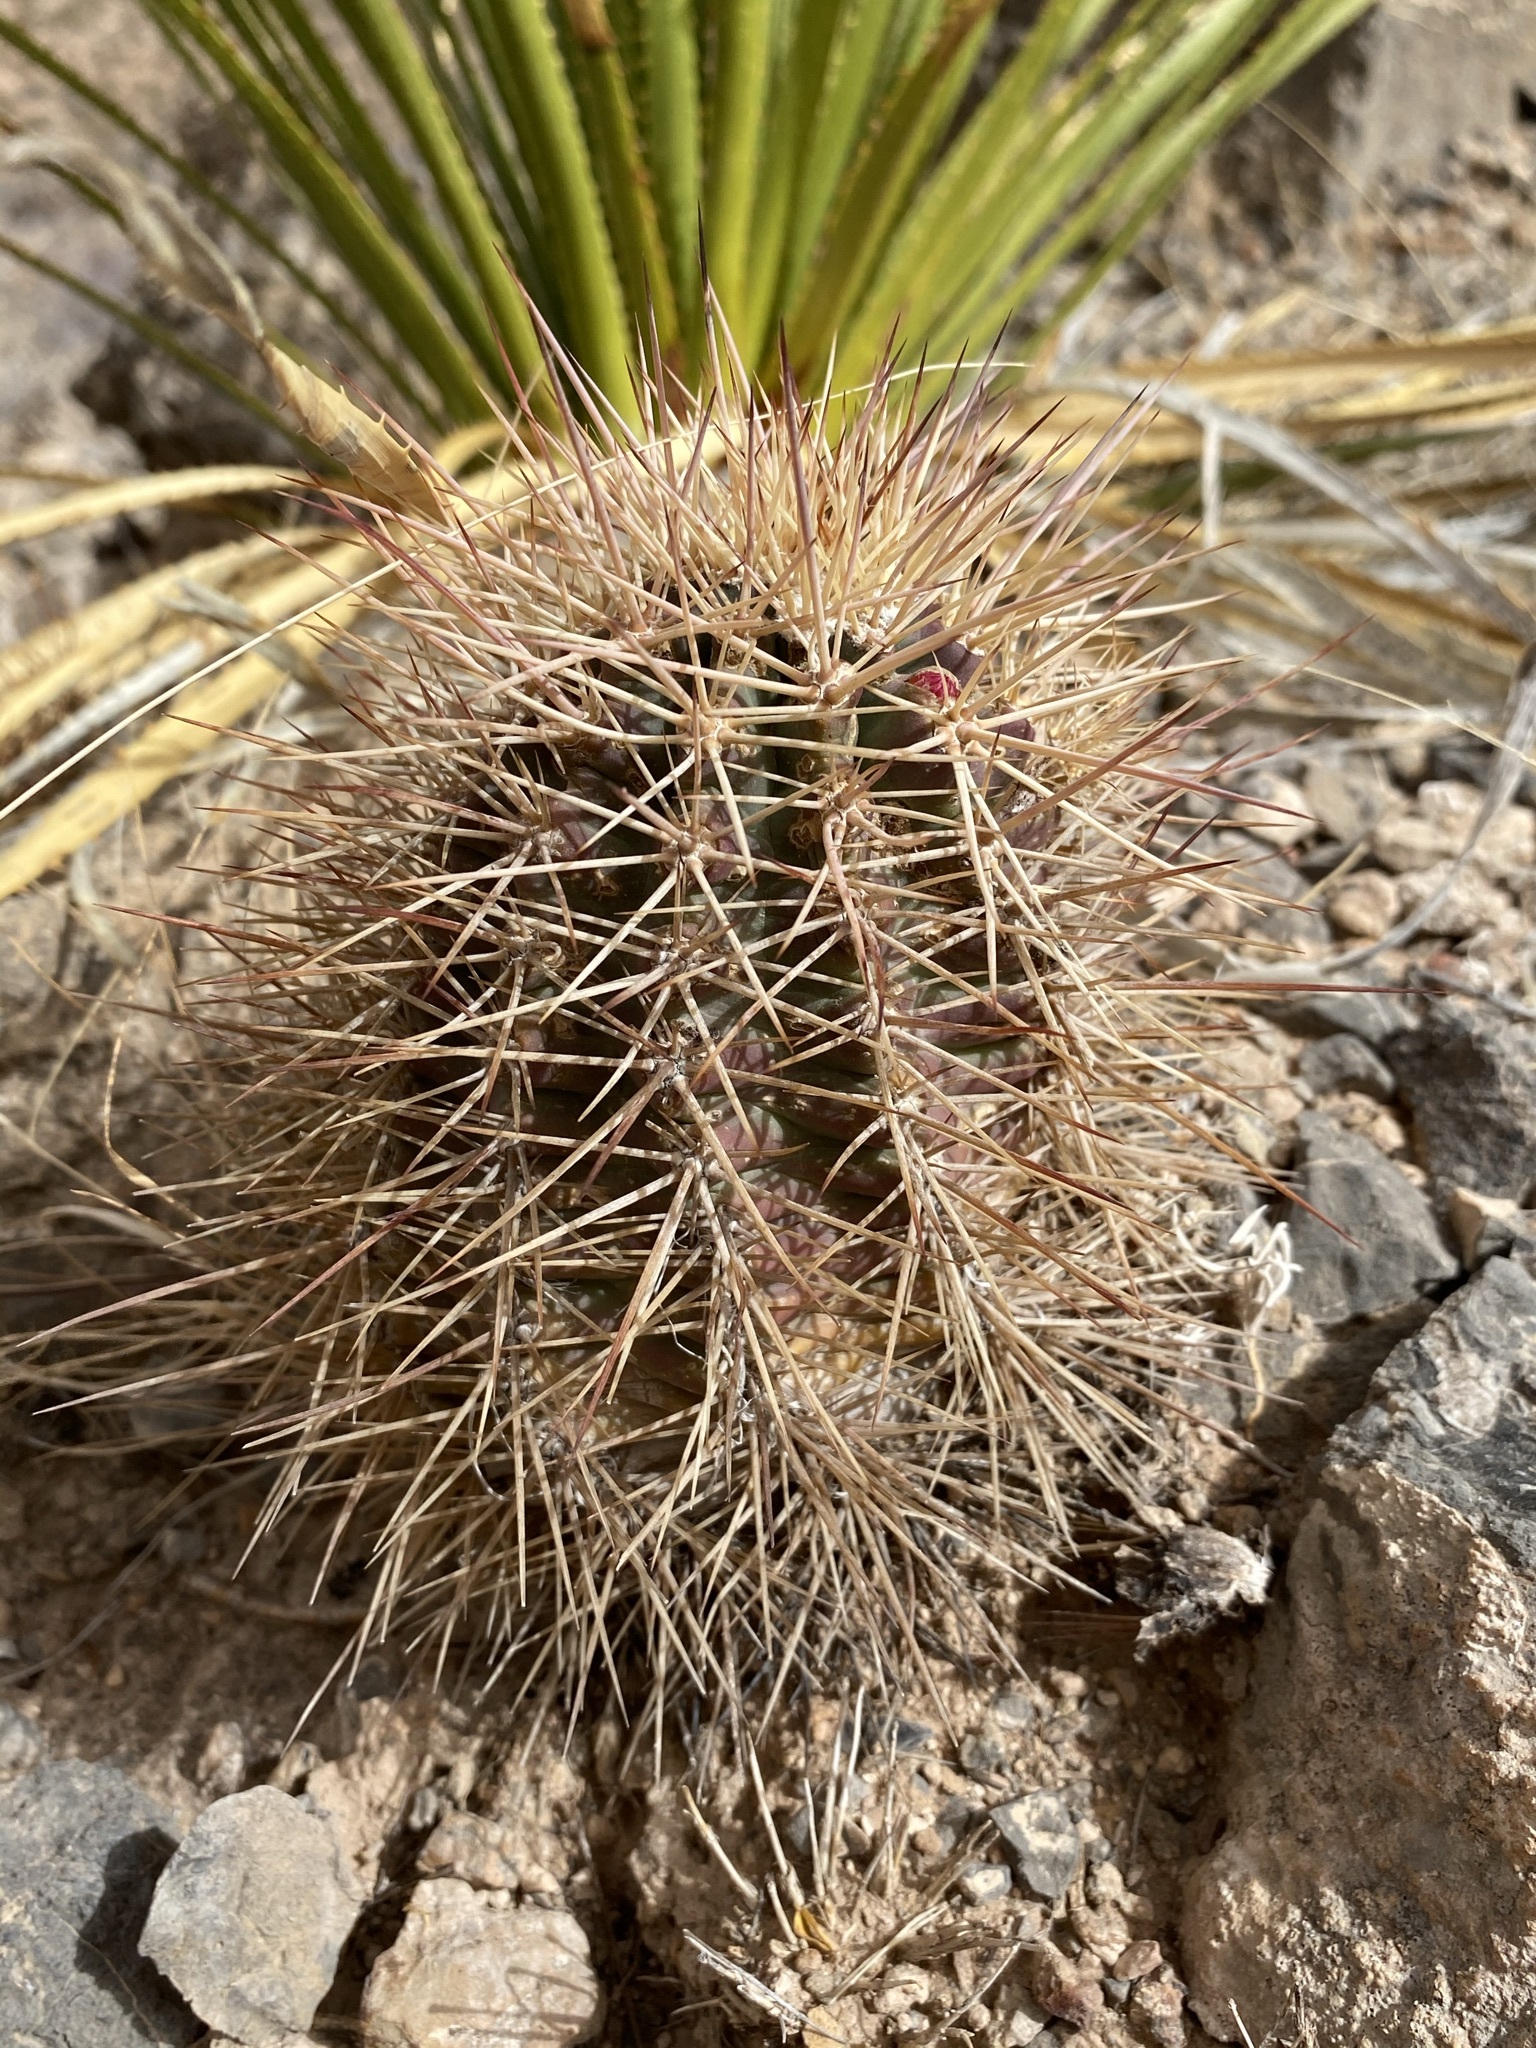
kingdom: Plantae
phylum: Tracheophyta
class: Magnoliopsida
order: Caryophyllales
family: Cactaceae
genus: Echinocereus
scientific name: Echinocereus coccineus
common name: Scarlet hedgehog cactus
